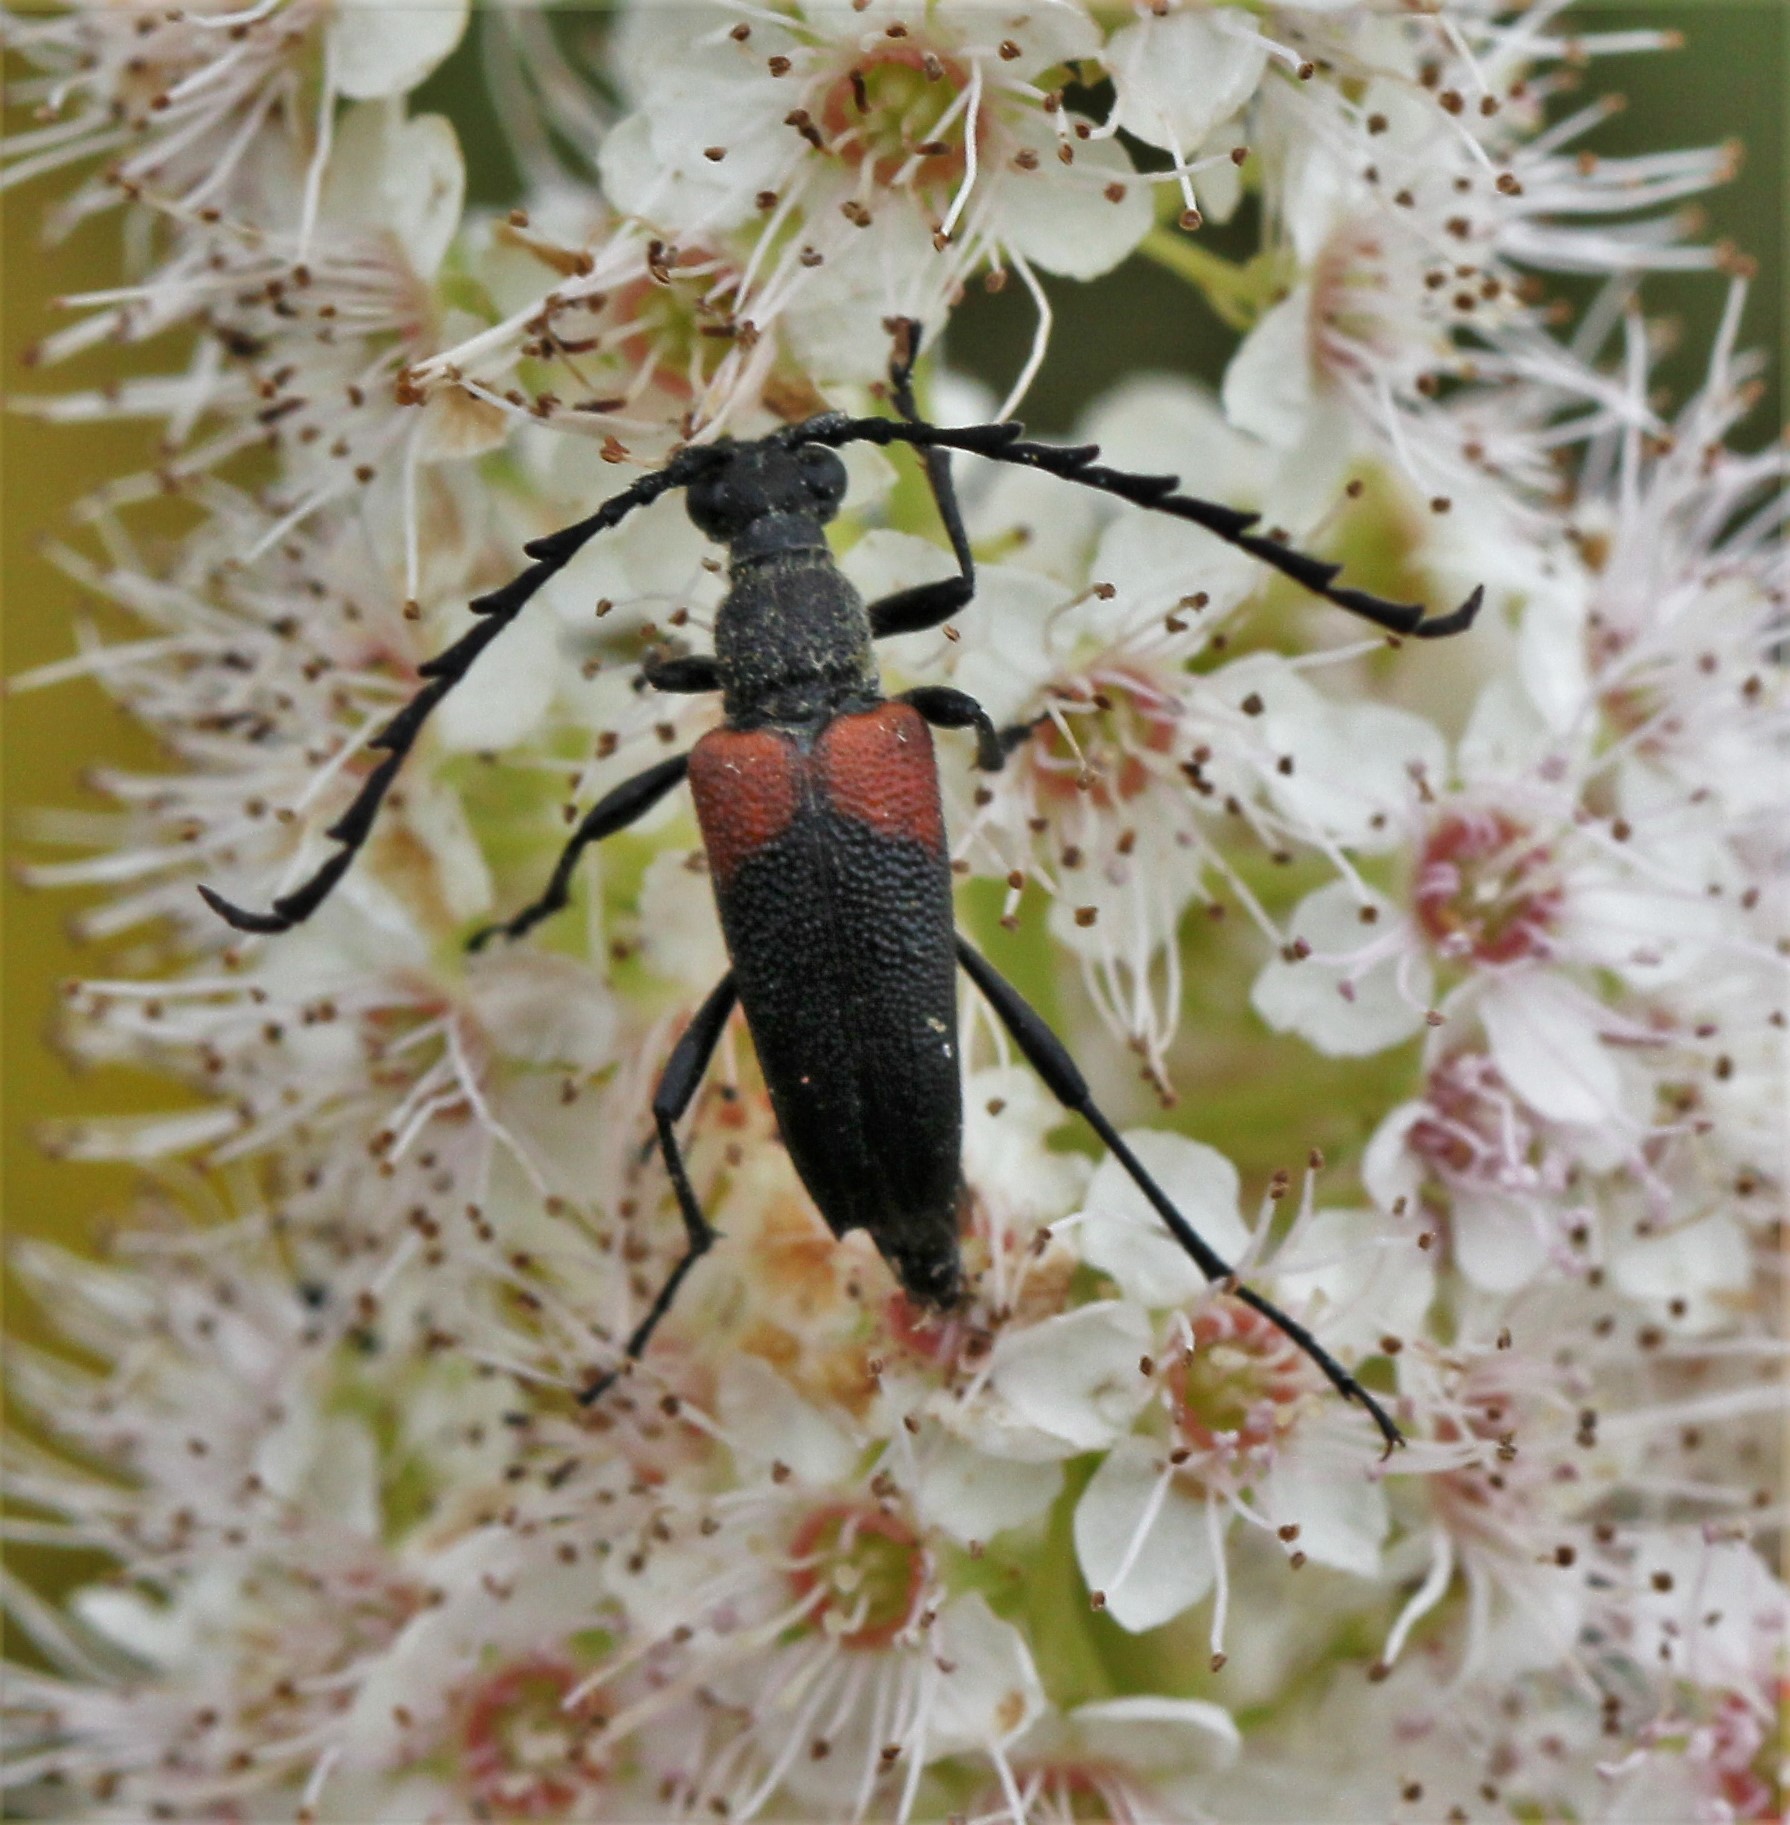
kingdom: Animalia
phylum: Arthropoda
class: Insecta
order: Coleoptera
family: Cerambycidae
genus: Stictoleptura
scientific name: Stictoleptura canadensis
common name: Red-shouldered pine borer
